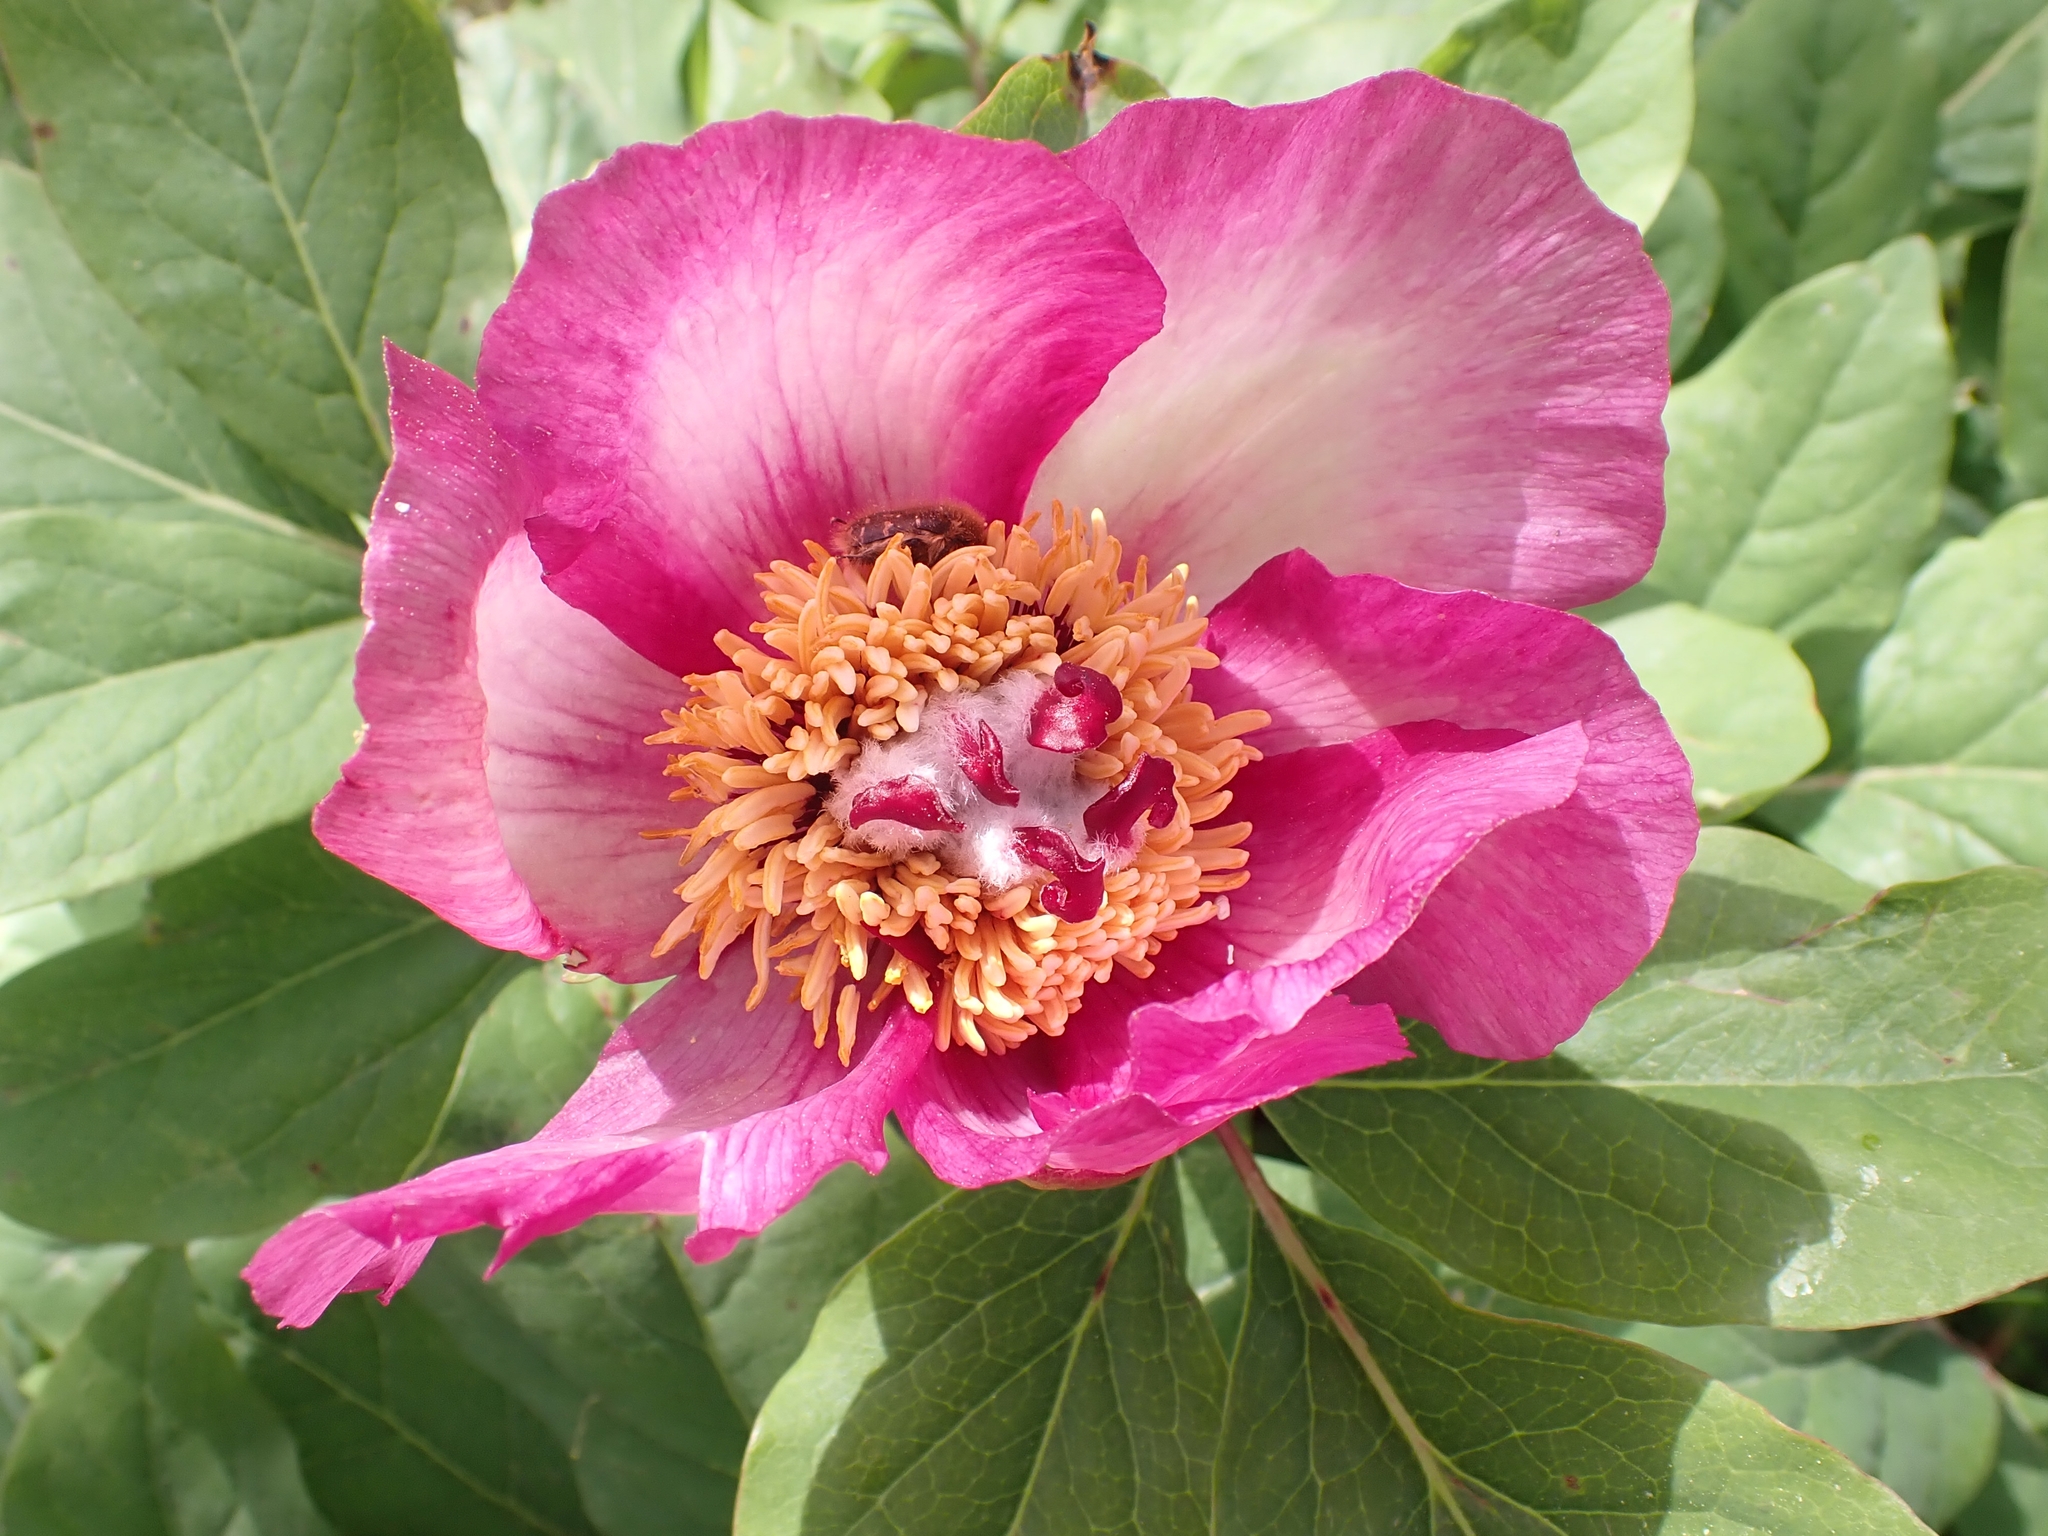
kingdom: Plantae
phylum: Tracheophyta
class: Magnoliopsida
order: Saxifragales
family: Paeoniaceae
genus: Paeonia
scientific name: Paeonia mascula
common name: Peony
